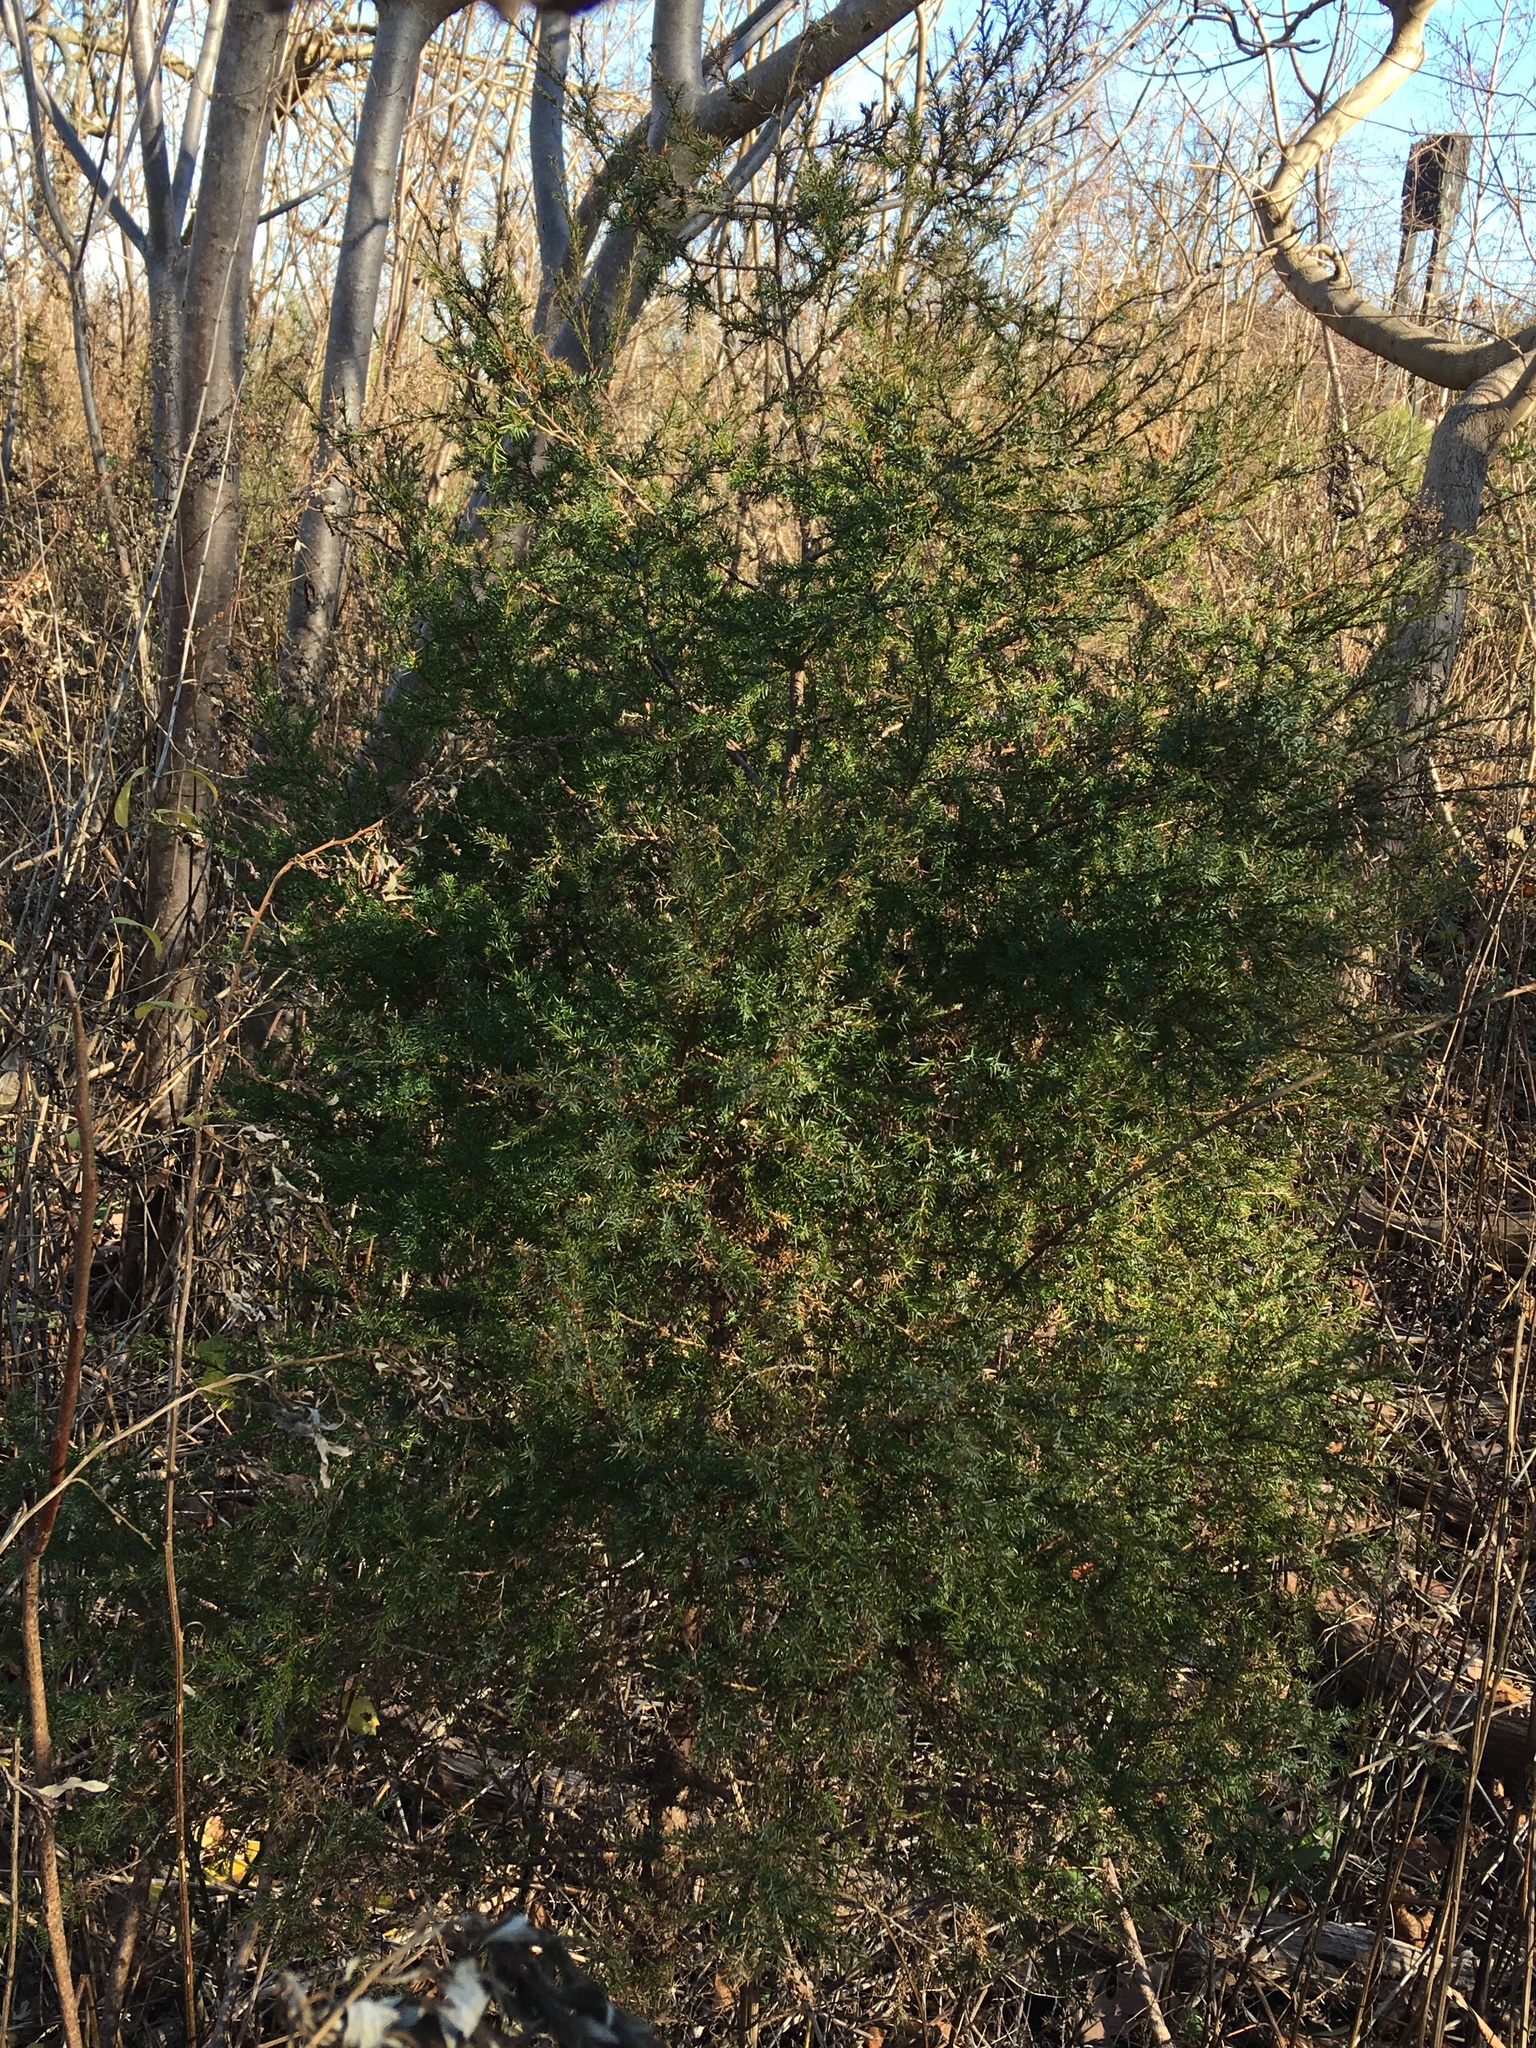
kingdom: Plantae
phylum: Tracheophyta
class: Pinopsida
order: Pinales
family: Cupressaceae
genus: Juniperus
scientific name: Juniperus virginiana
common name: Red juniper
